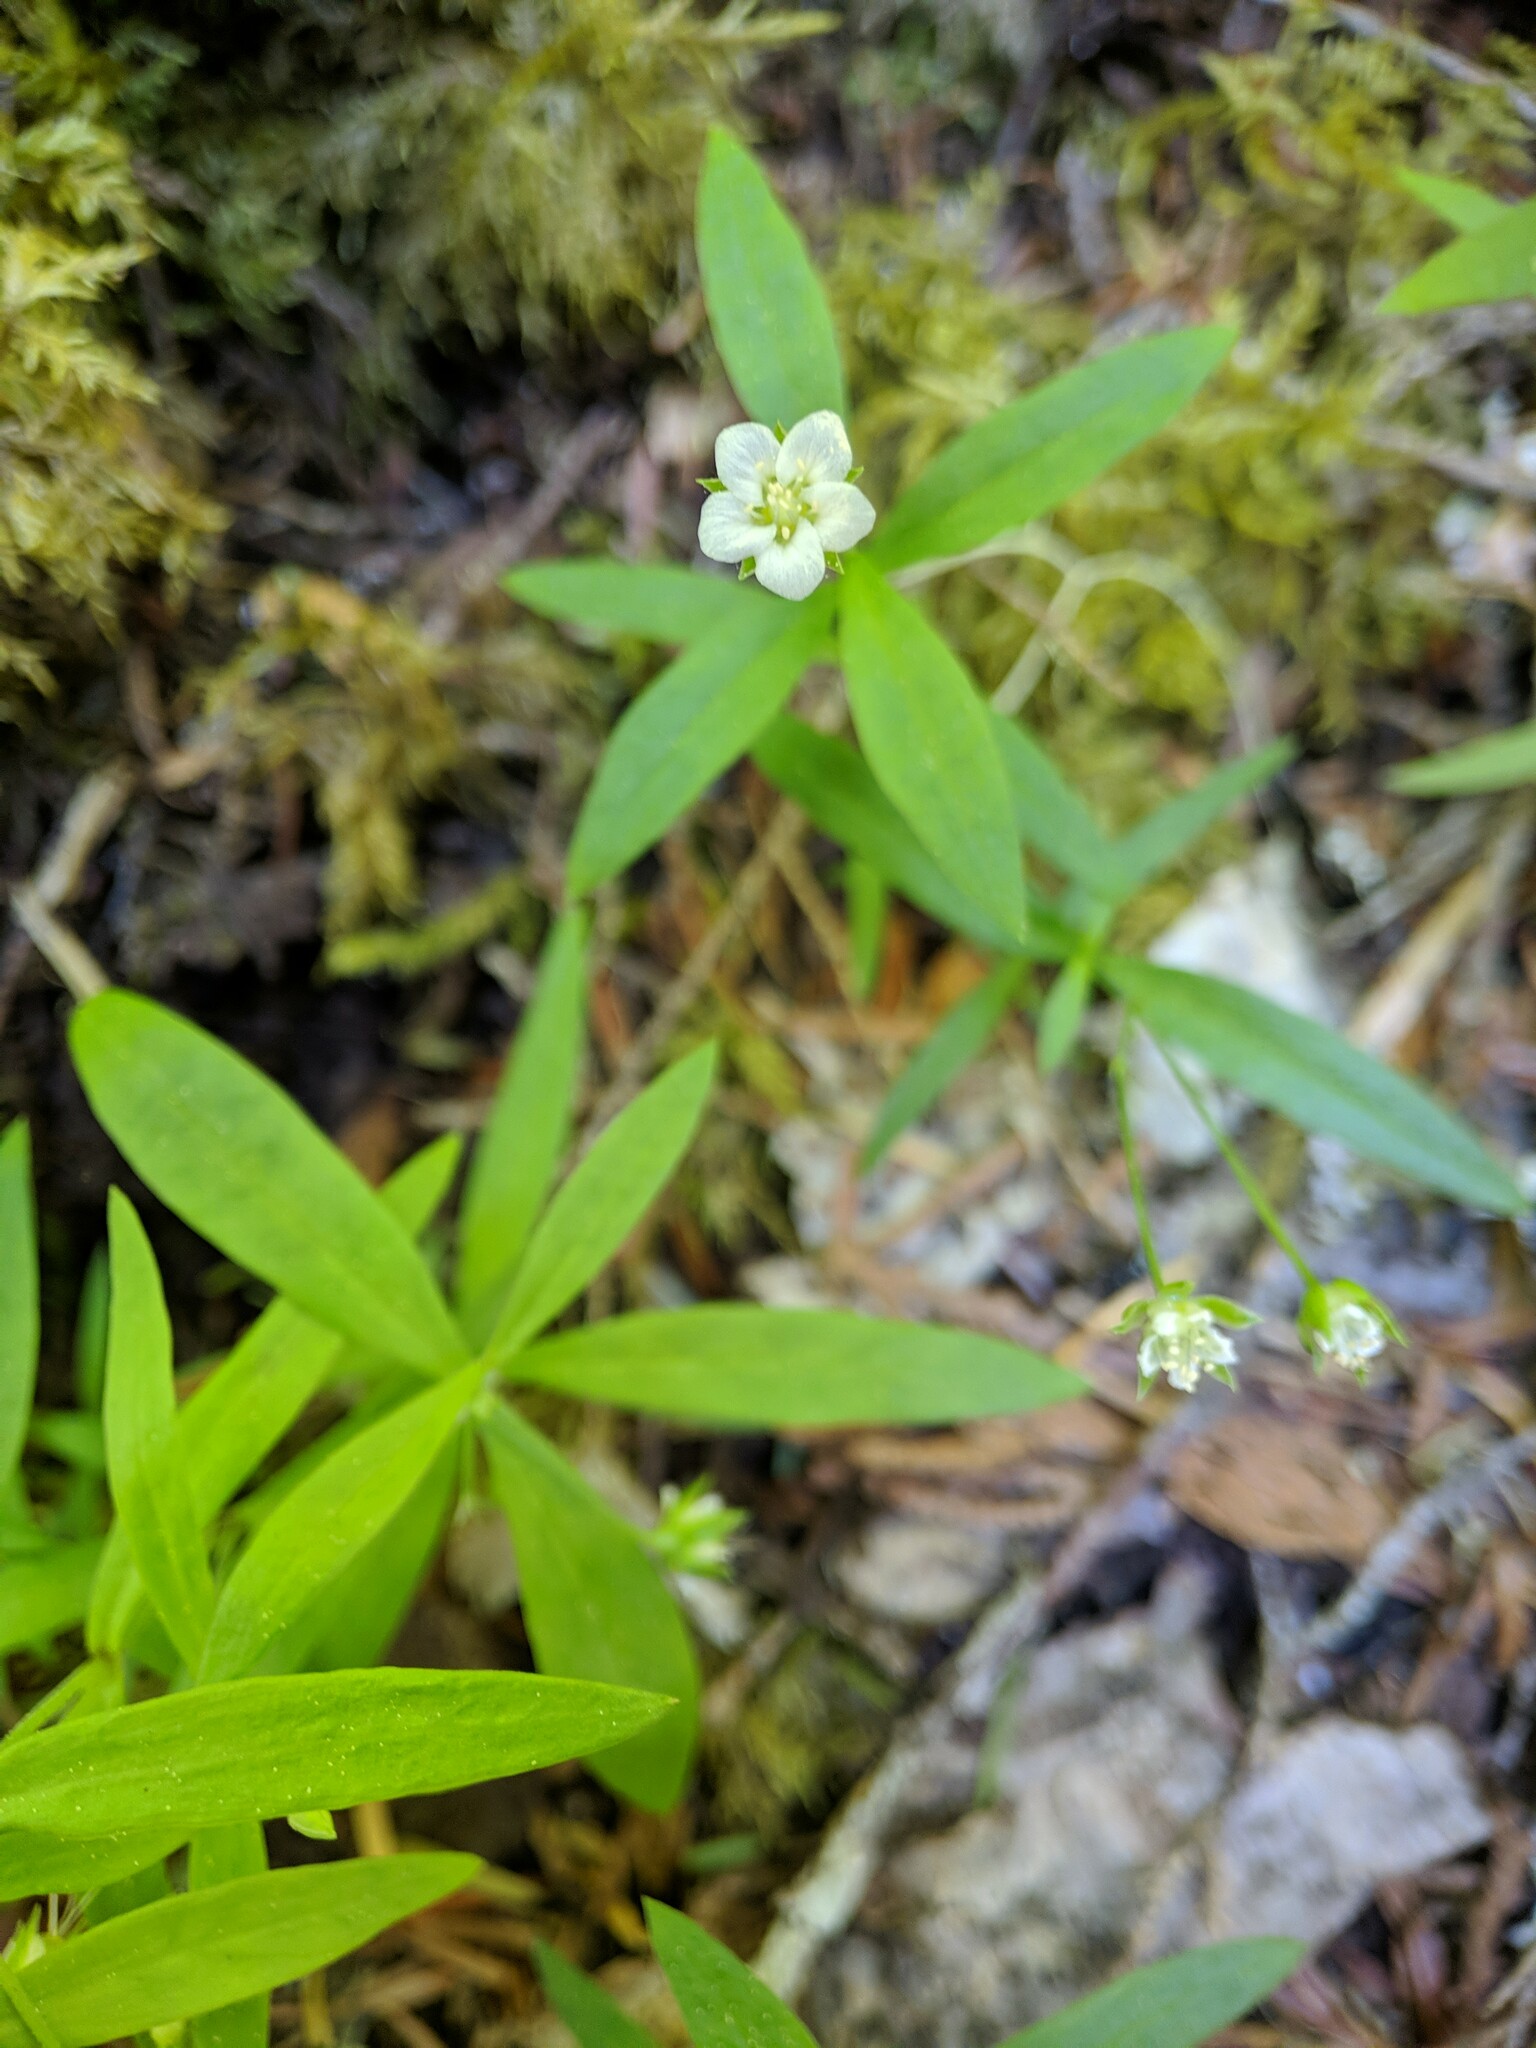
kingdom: Plantae
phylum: Tracheophyta
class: Magnoliopsida
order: Caryophyllales
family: Caryophyllaceae
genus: Moehringia
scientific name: Moehringia macrophylla
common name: Big-leaf sandwort
